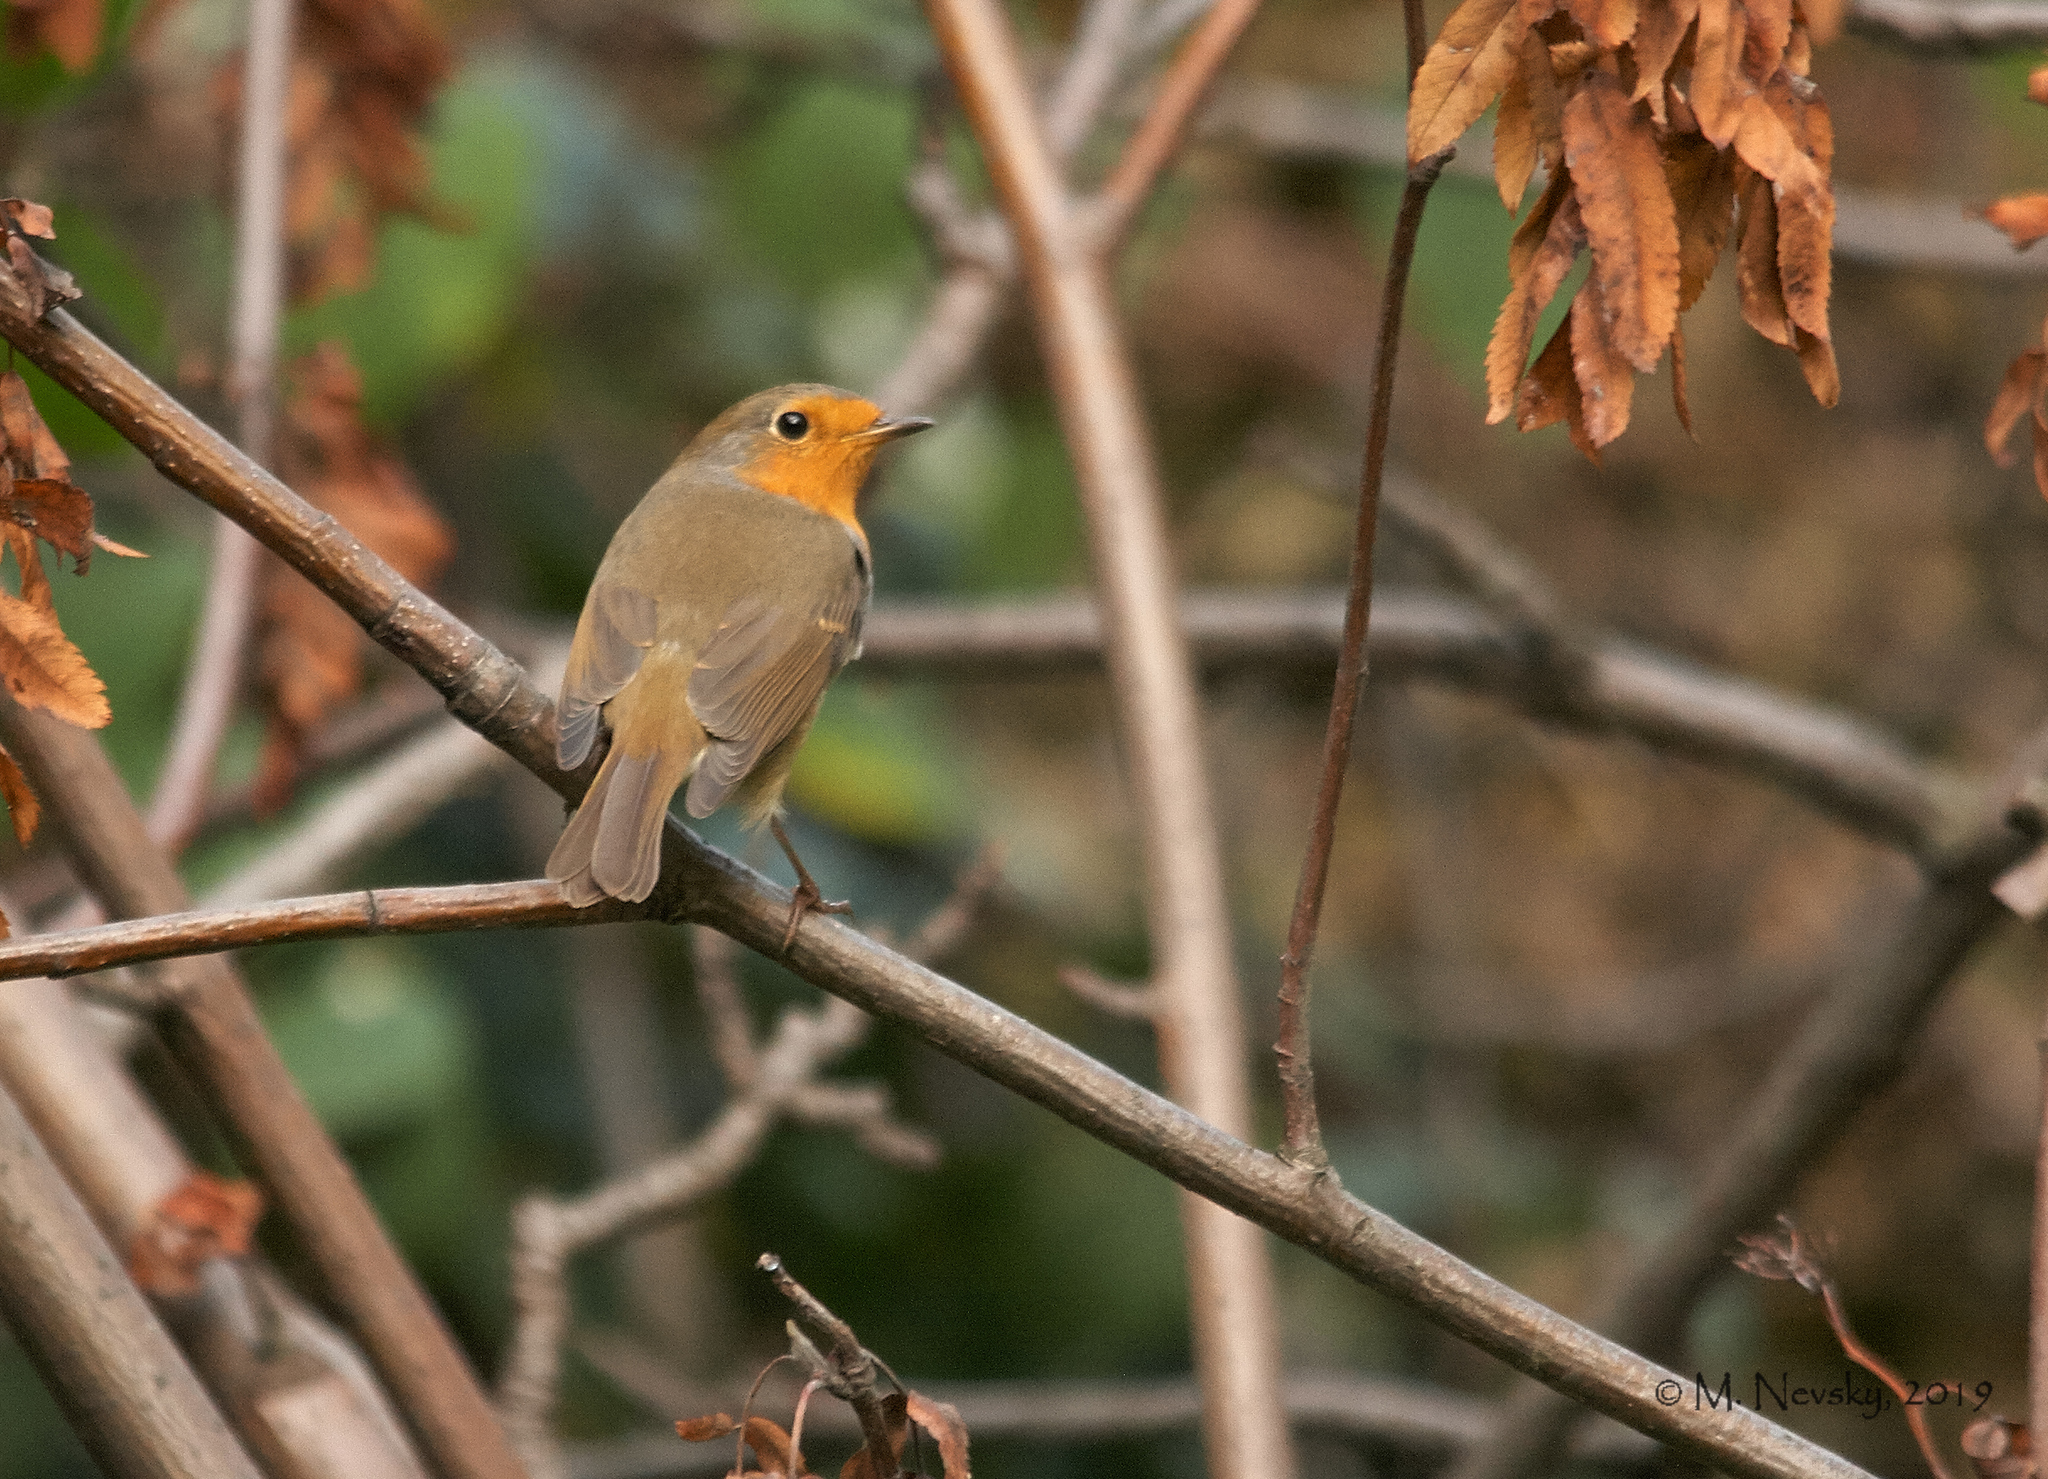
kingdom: Animalia
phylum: Chordata
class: Aves
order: Passeriformes
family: Muscicapidae
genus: Erithacus
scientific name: Erithacus rubecula
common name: European robin
